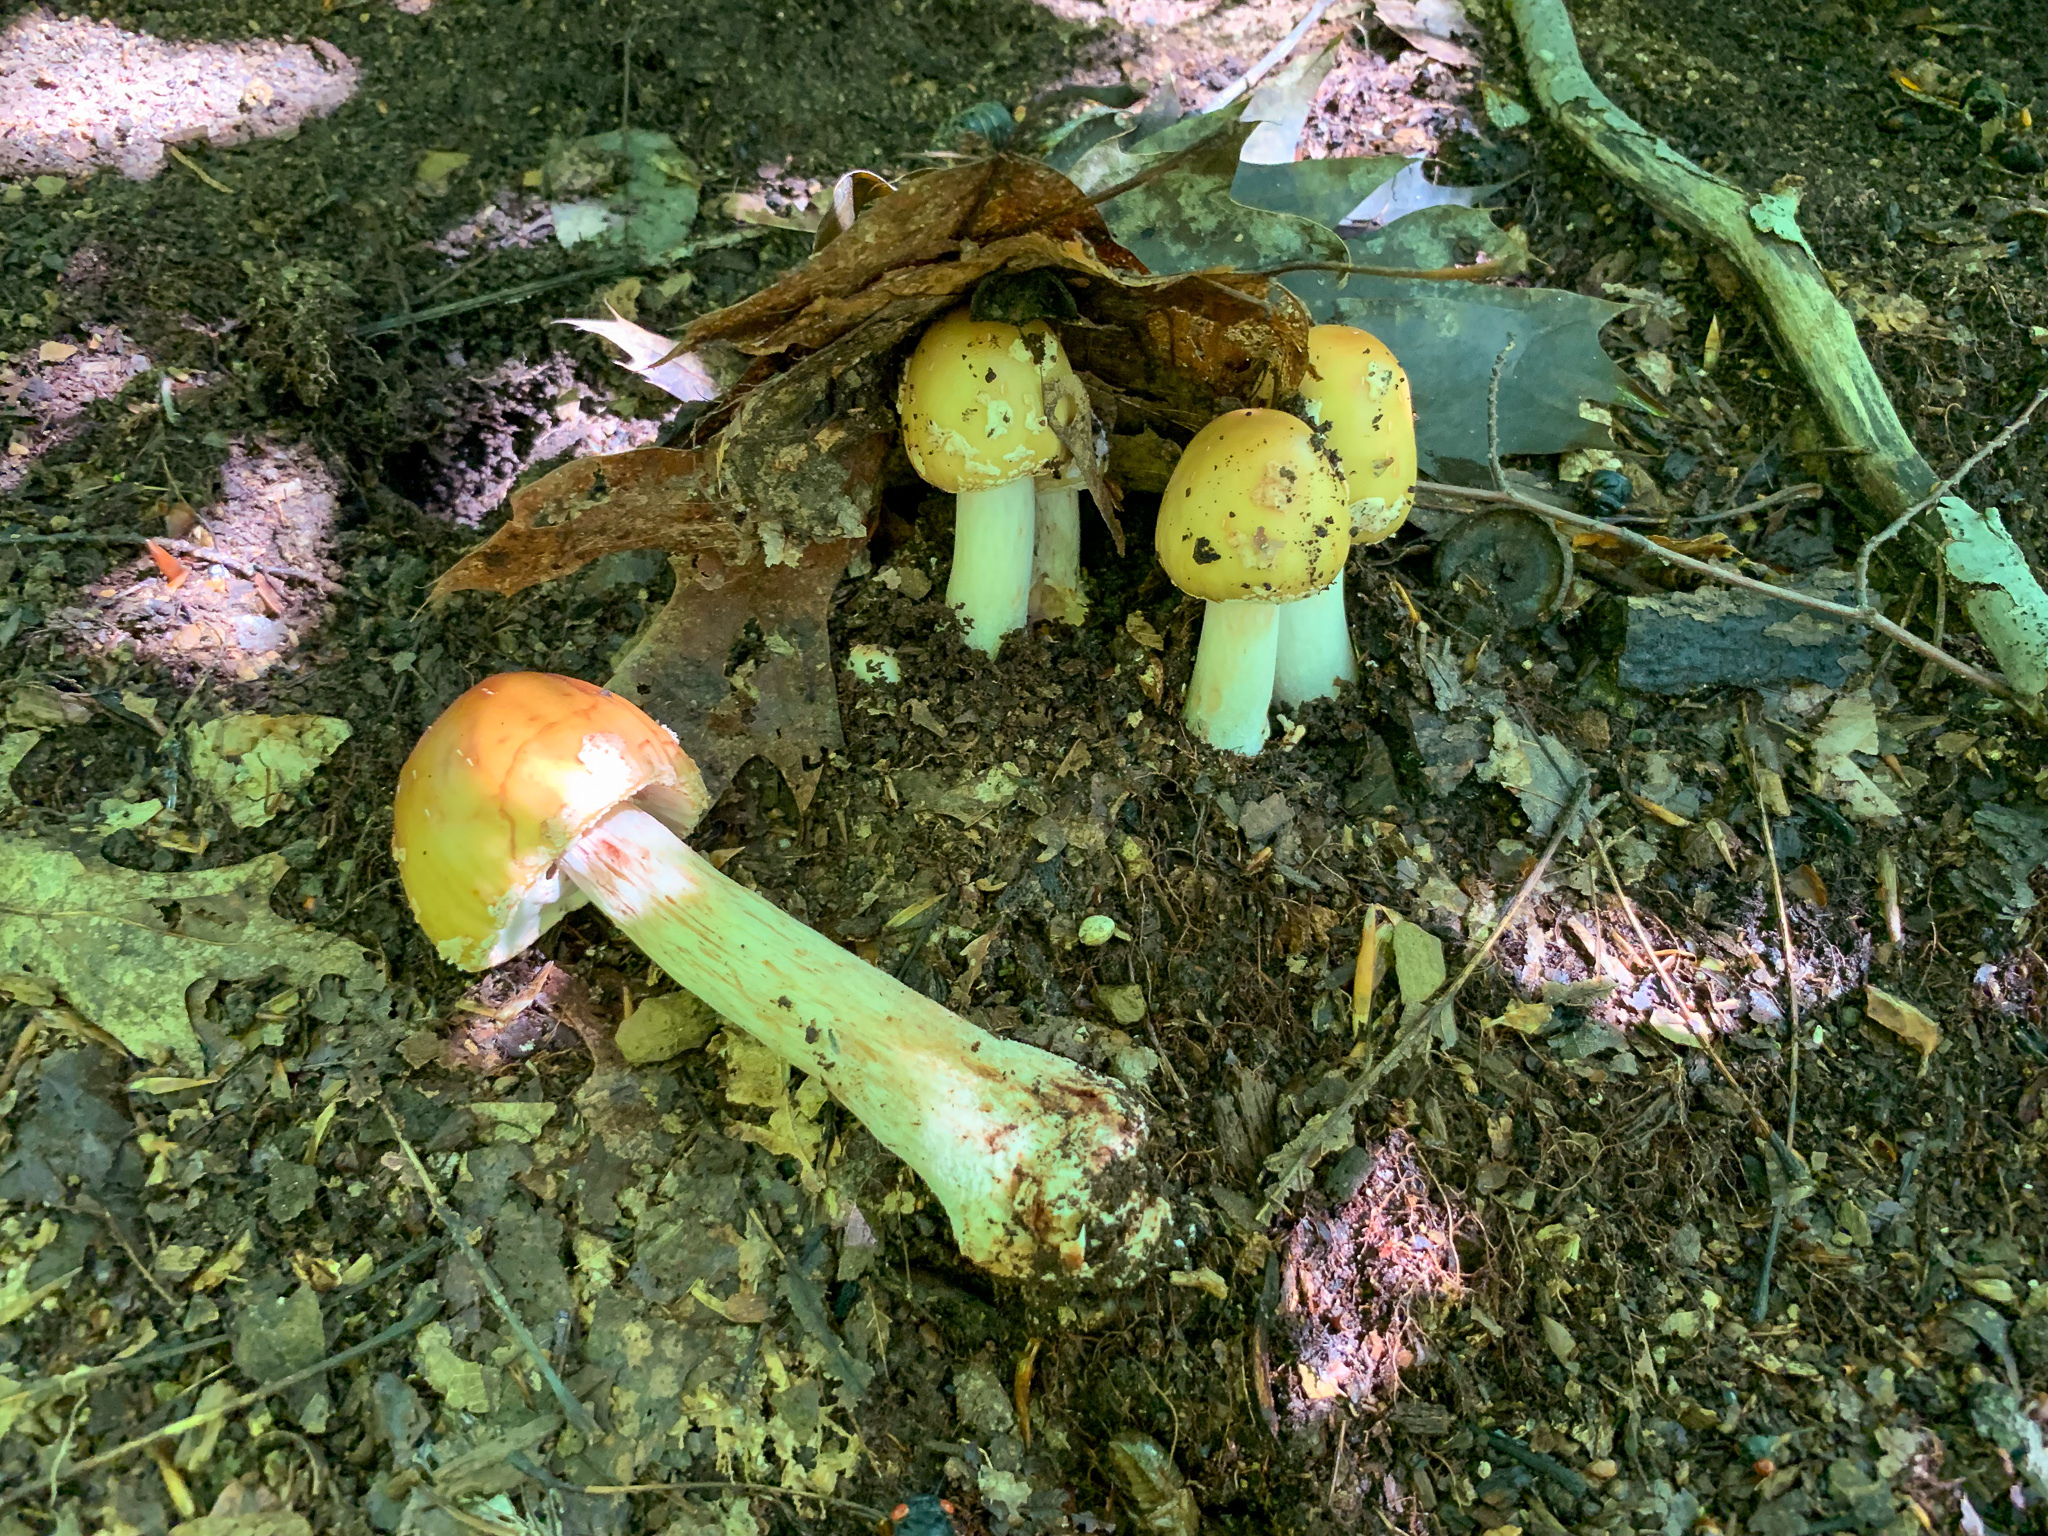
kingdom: Fungi
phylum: Basidiomycota
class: Agaricomycetes
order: Agaricales
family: Amanitaceae
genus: Amanita
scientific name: Amanita flavorubens
